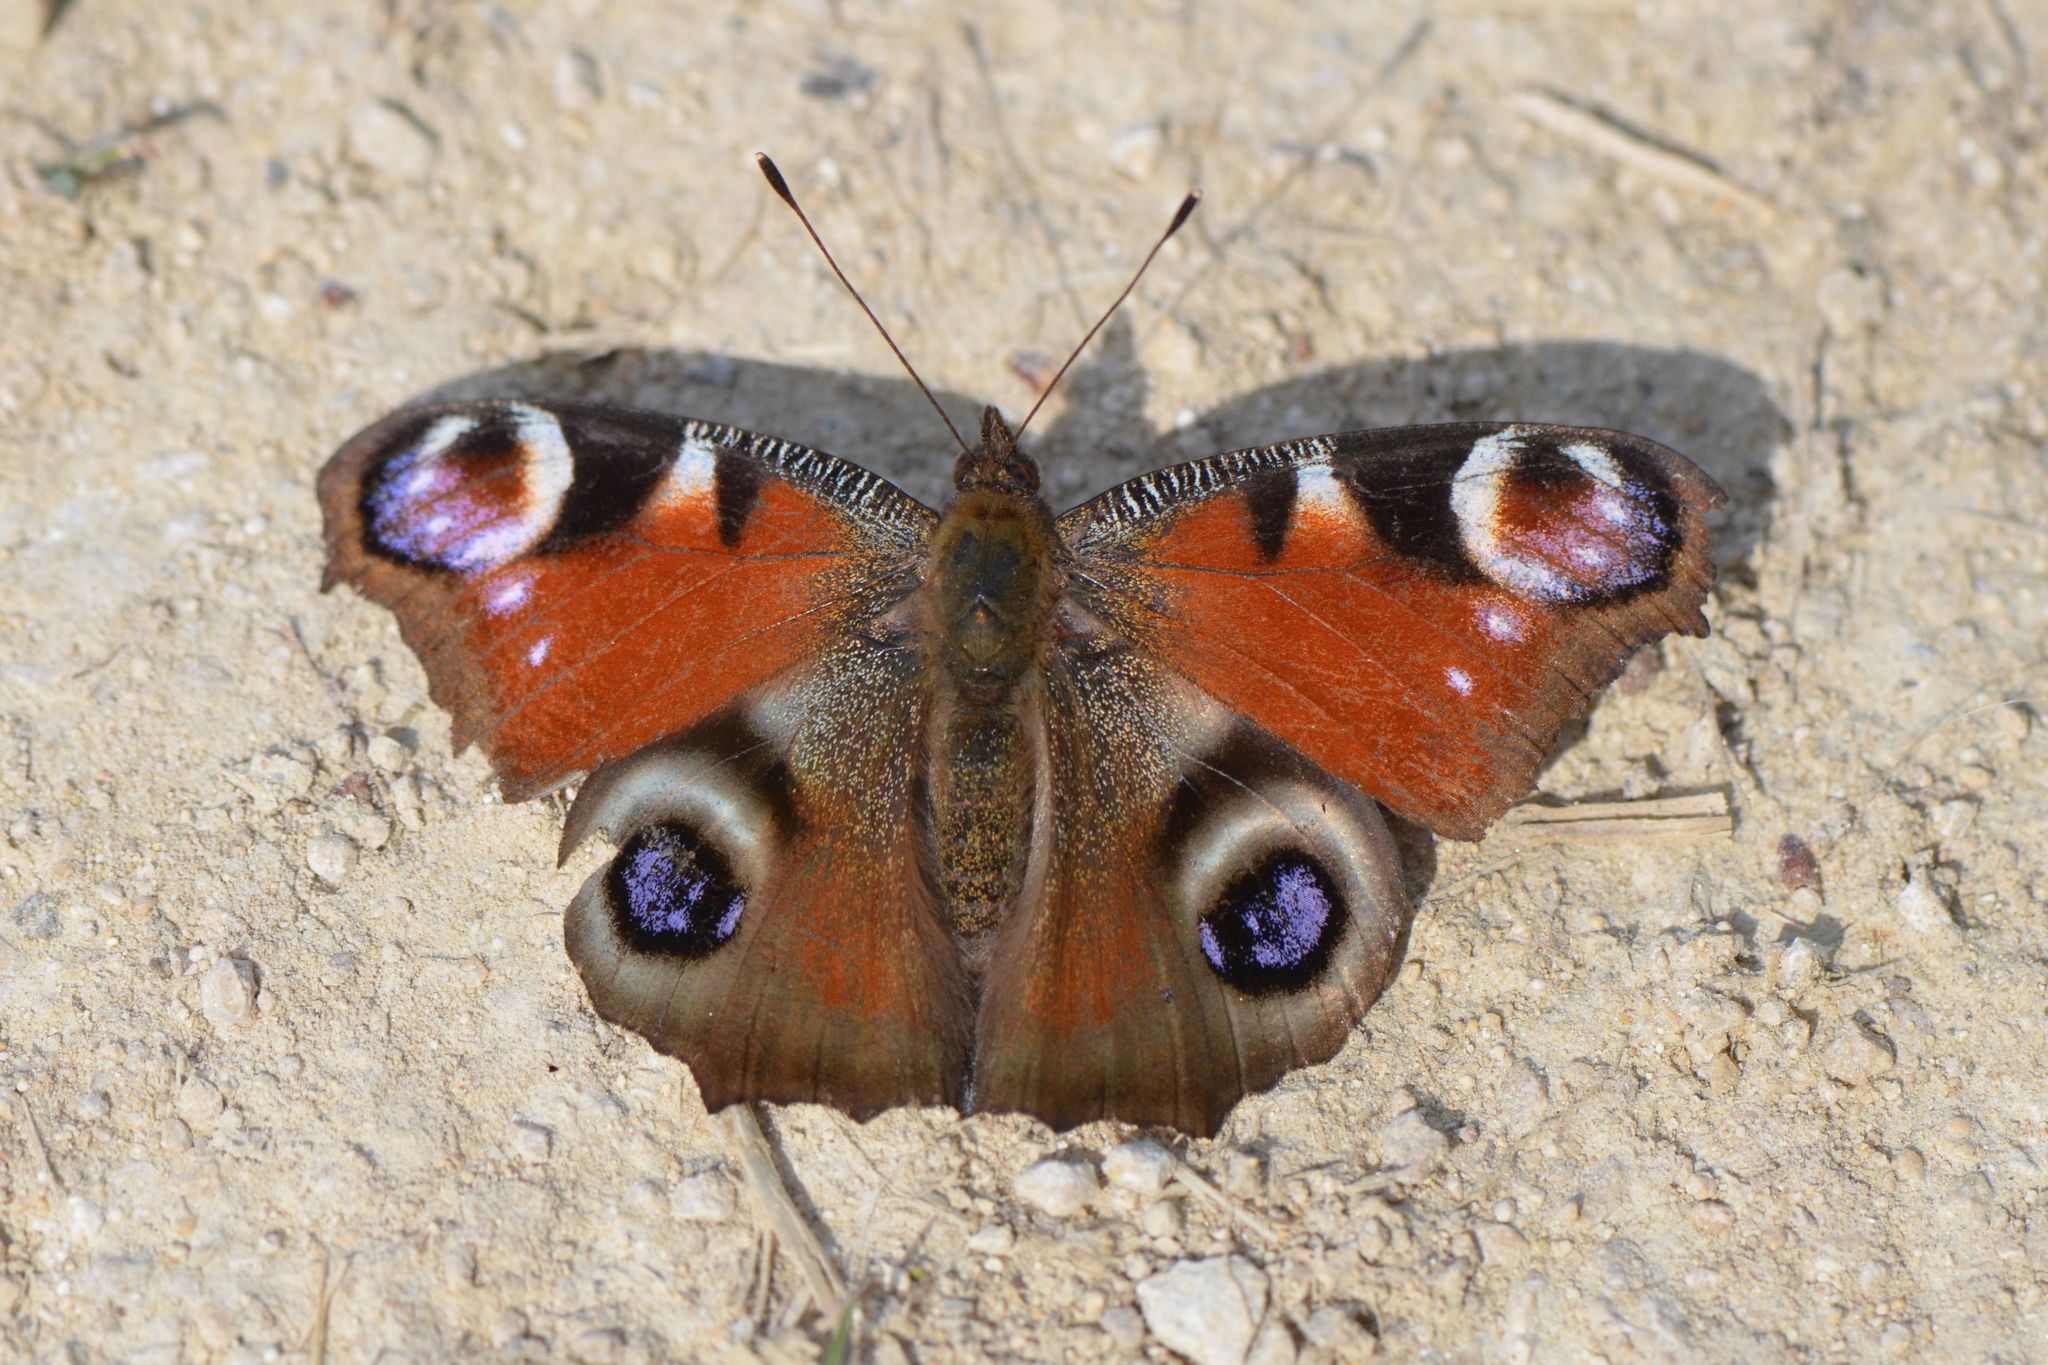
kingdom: Animalia
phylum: Arthropoda
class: Insecta
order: Lepidoptera
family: Nymphalidae
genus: Aglais
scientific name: Aglais io
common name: Peacock
